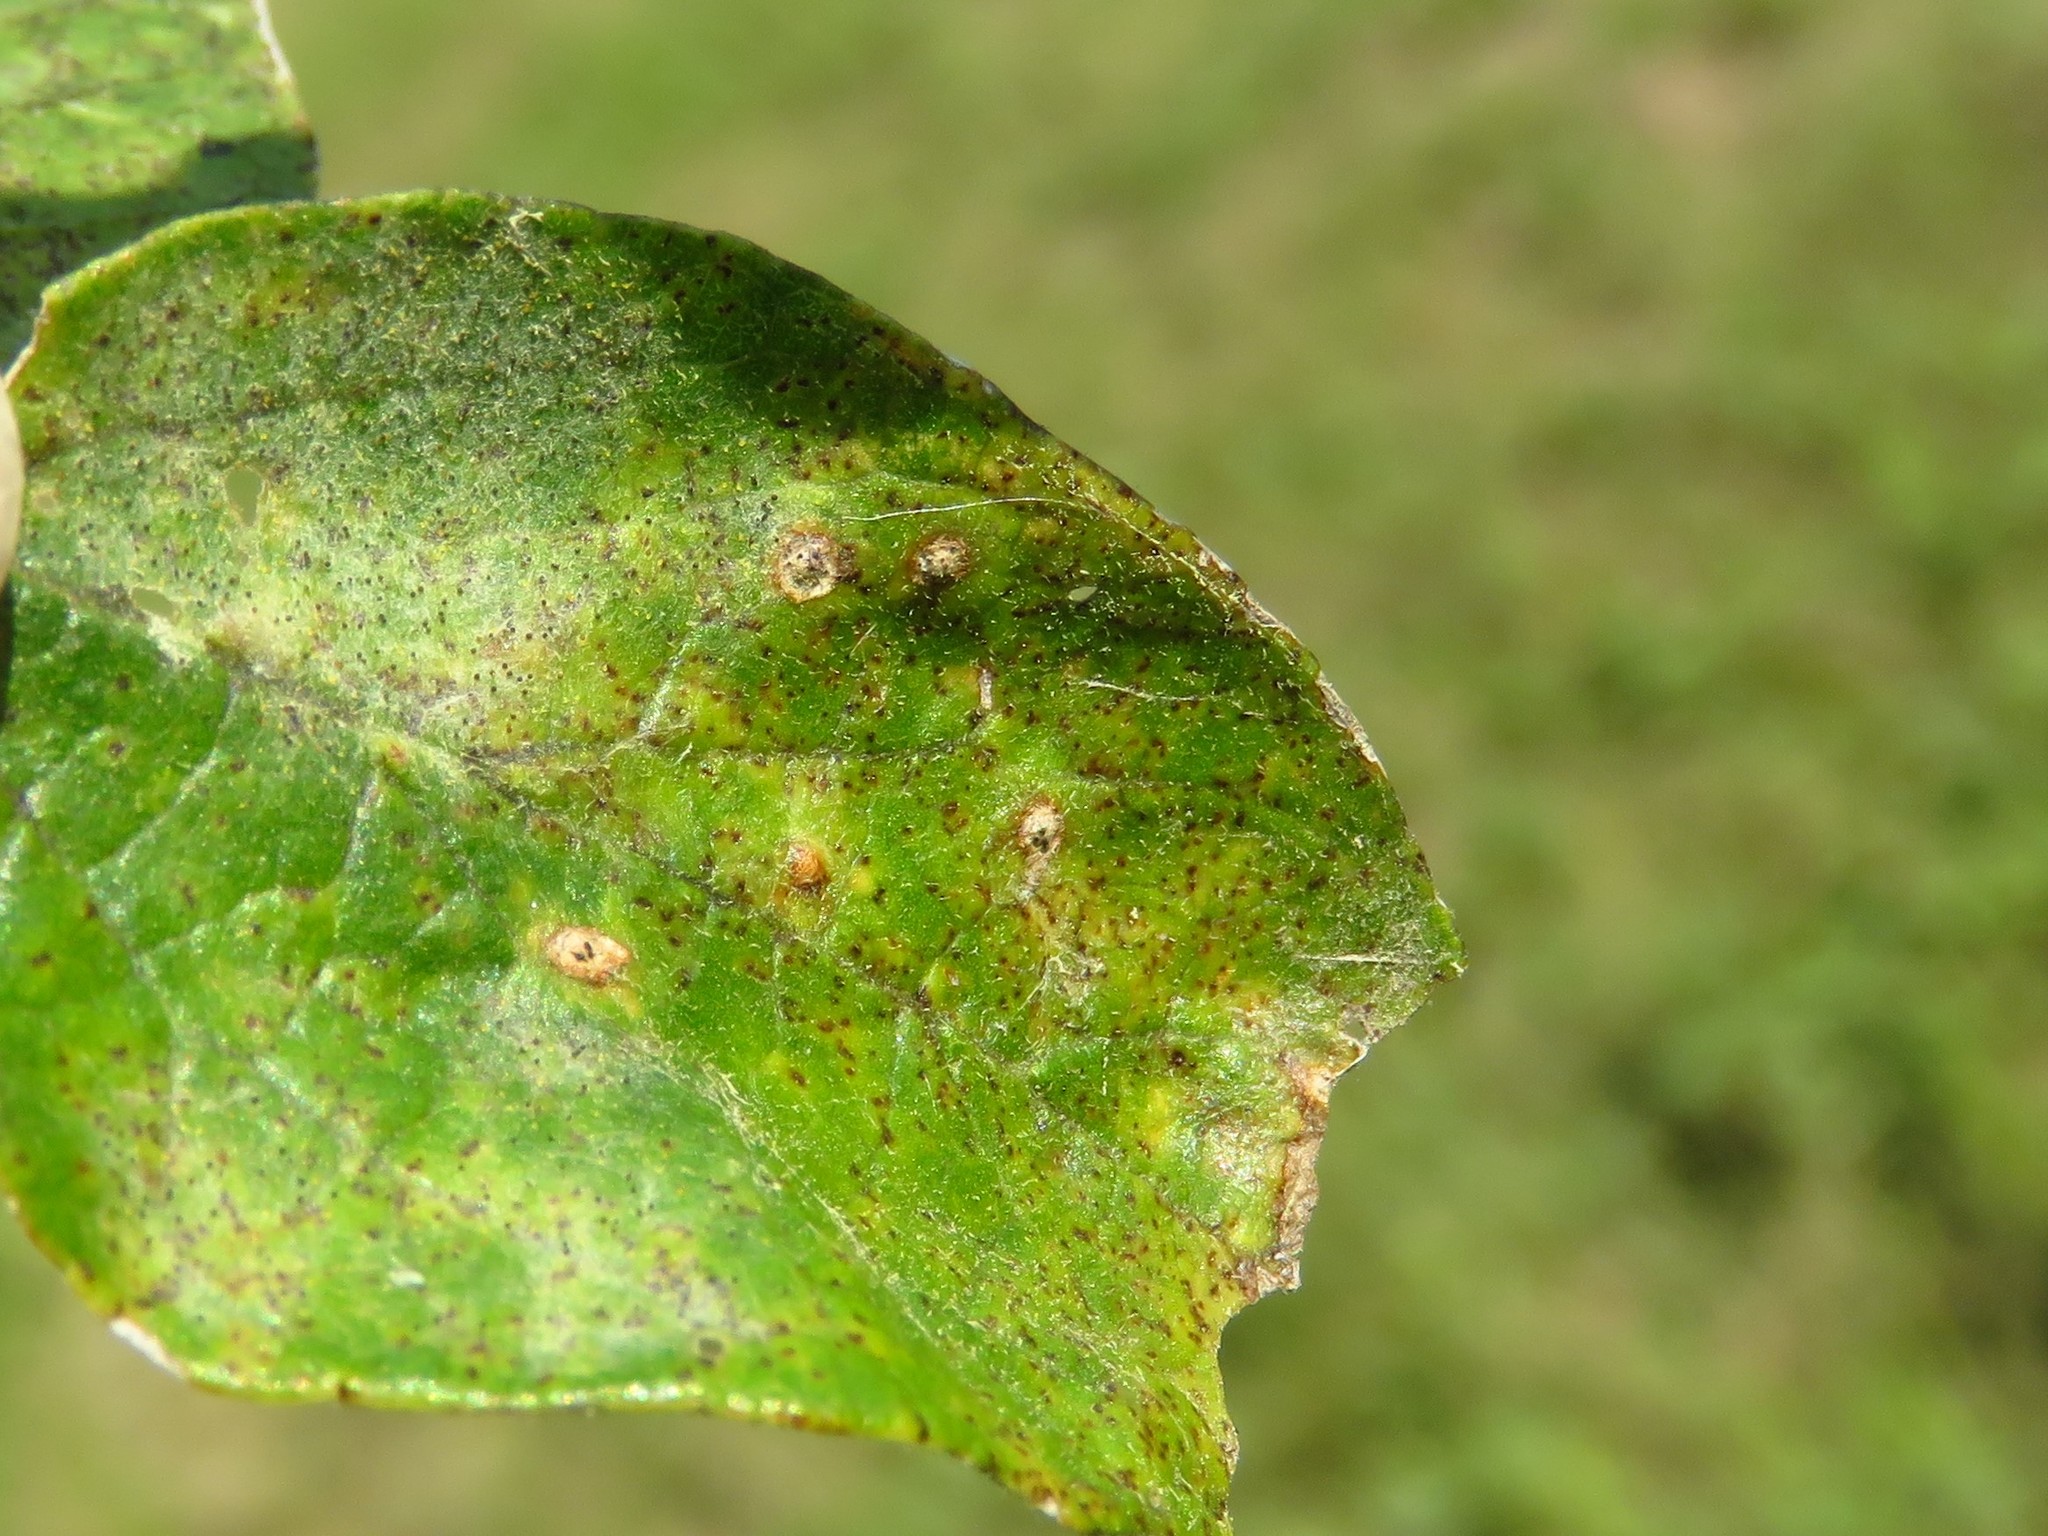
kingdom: Animalia
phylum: Arthropoda
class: Insecta
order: Diptera
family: Cecidomyiidae
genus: Celticecis
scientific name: Celticecis capsularis
